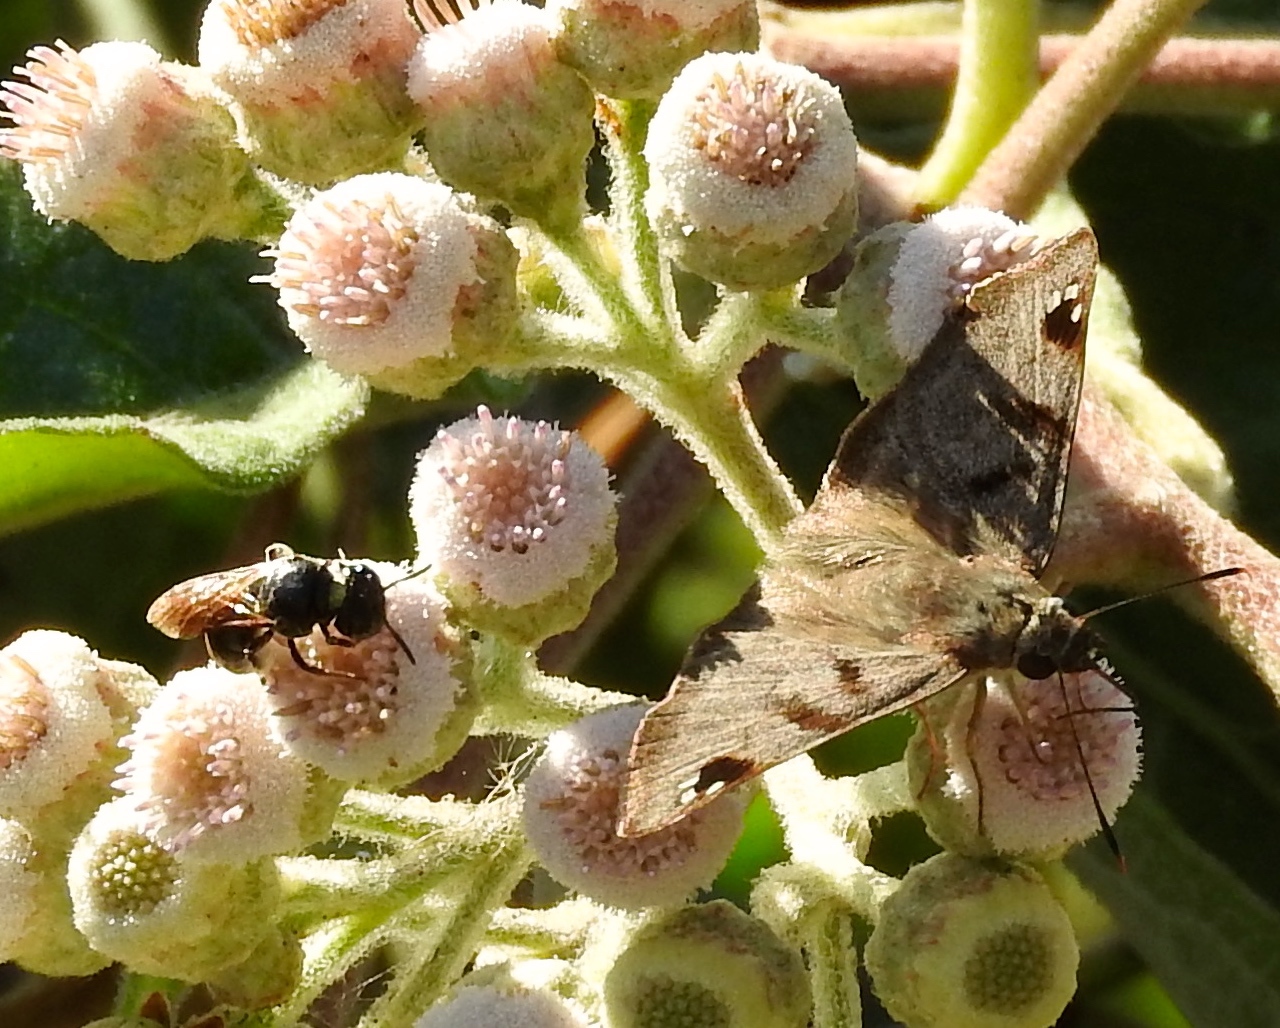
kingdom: Animalia
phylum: Arthropoda
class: Insecta
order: Lepidoptera
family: Hesperiidae
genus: Arteurotia
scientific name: Arteurotia tractipennis
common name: Starred skipper
